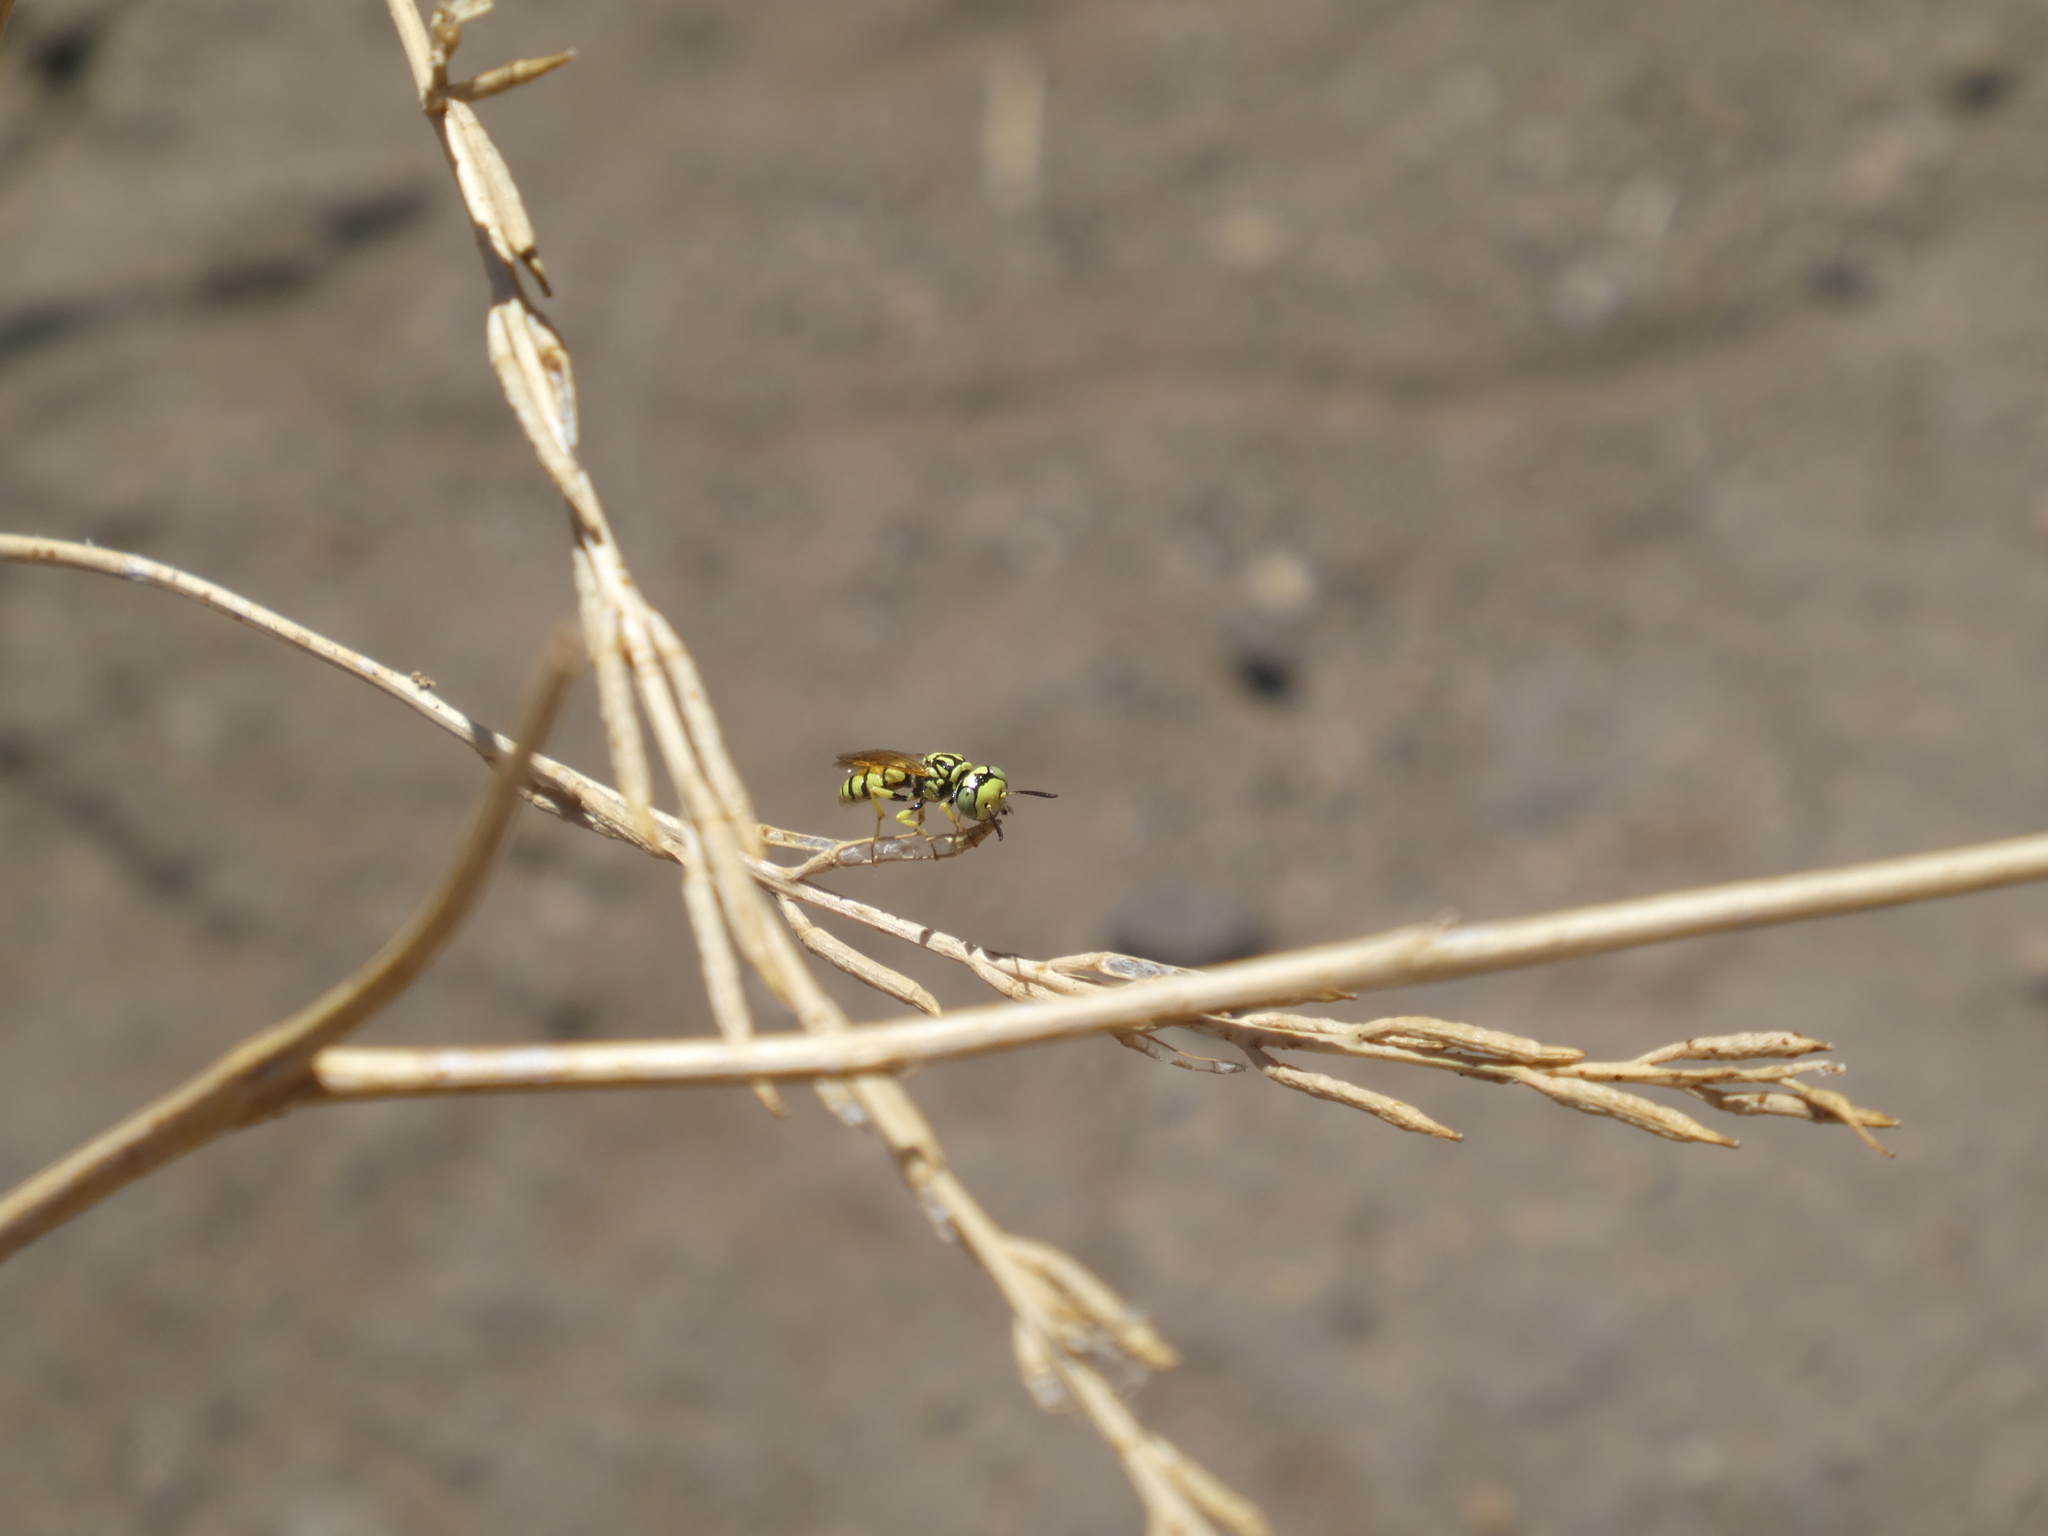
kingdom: Animalia
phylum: Arthropoda
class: Insecta
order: Hymenoptera
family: Crabronidae
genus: Philanthus
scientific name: Philanthus multimaculatus
